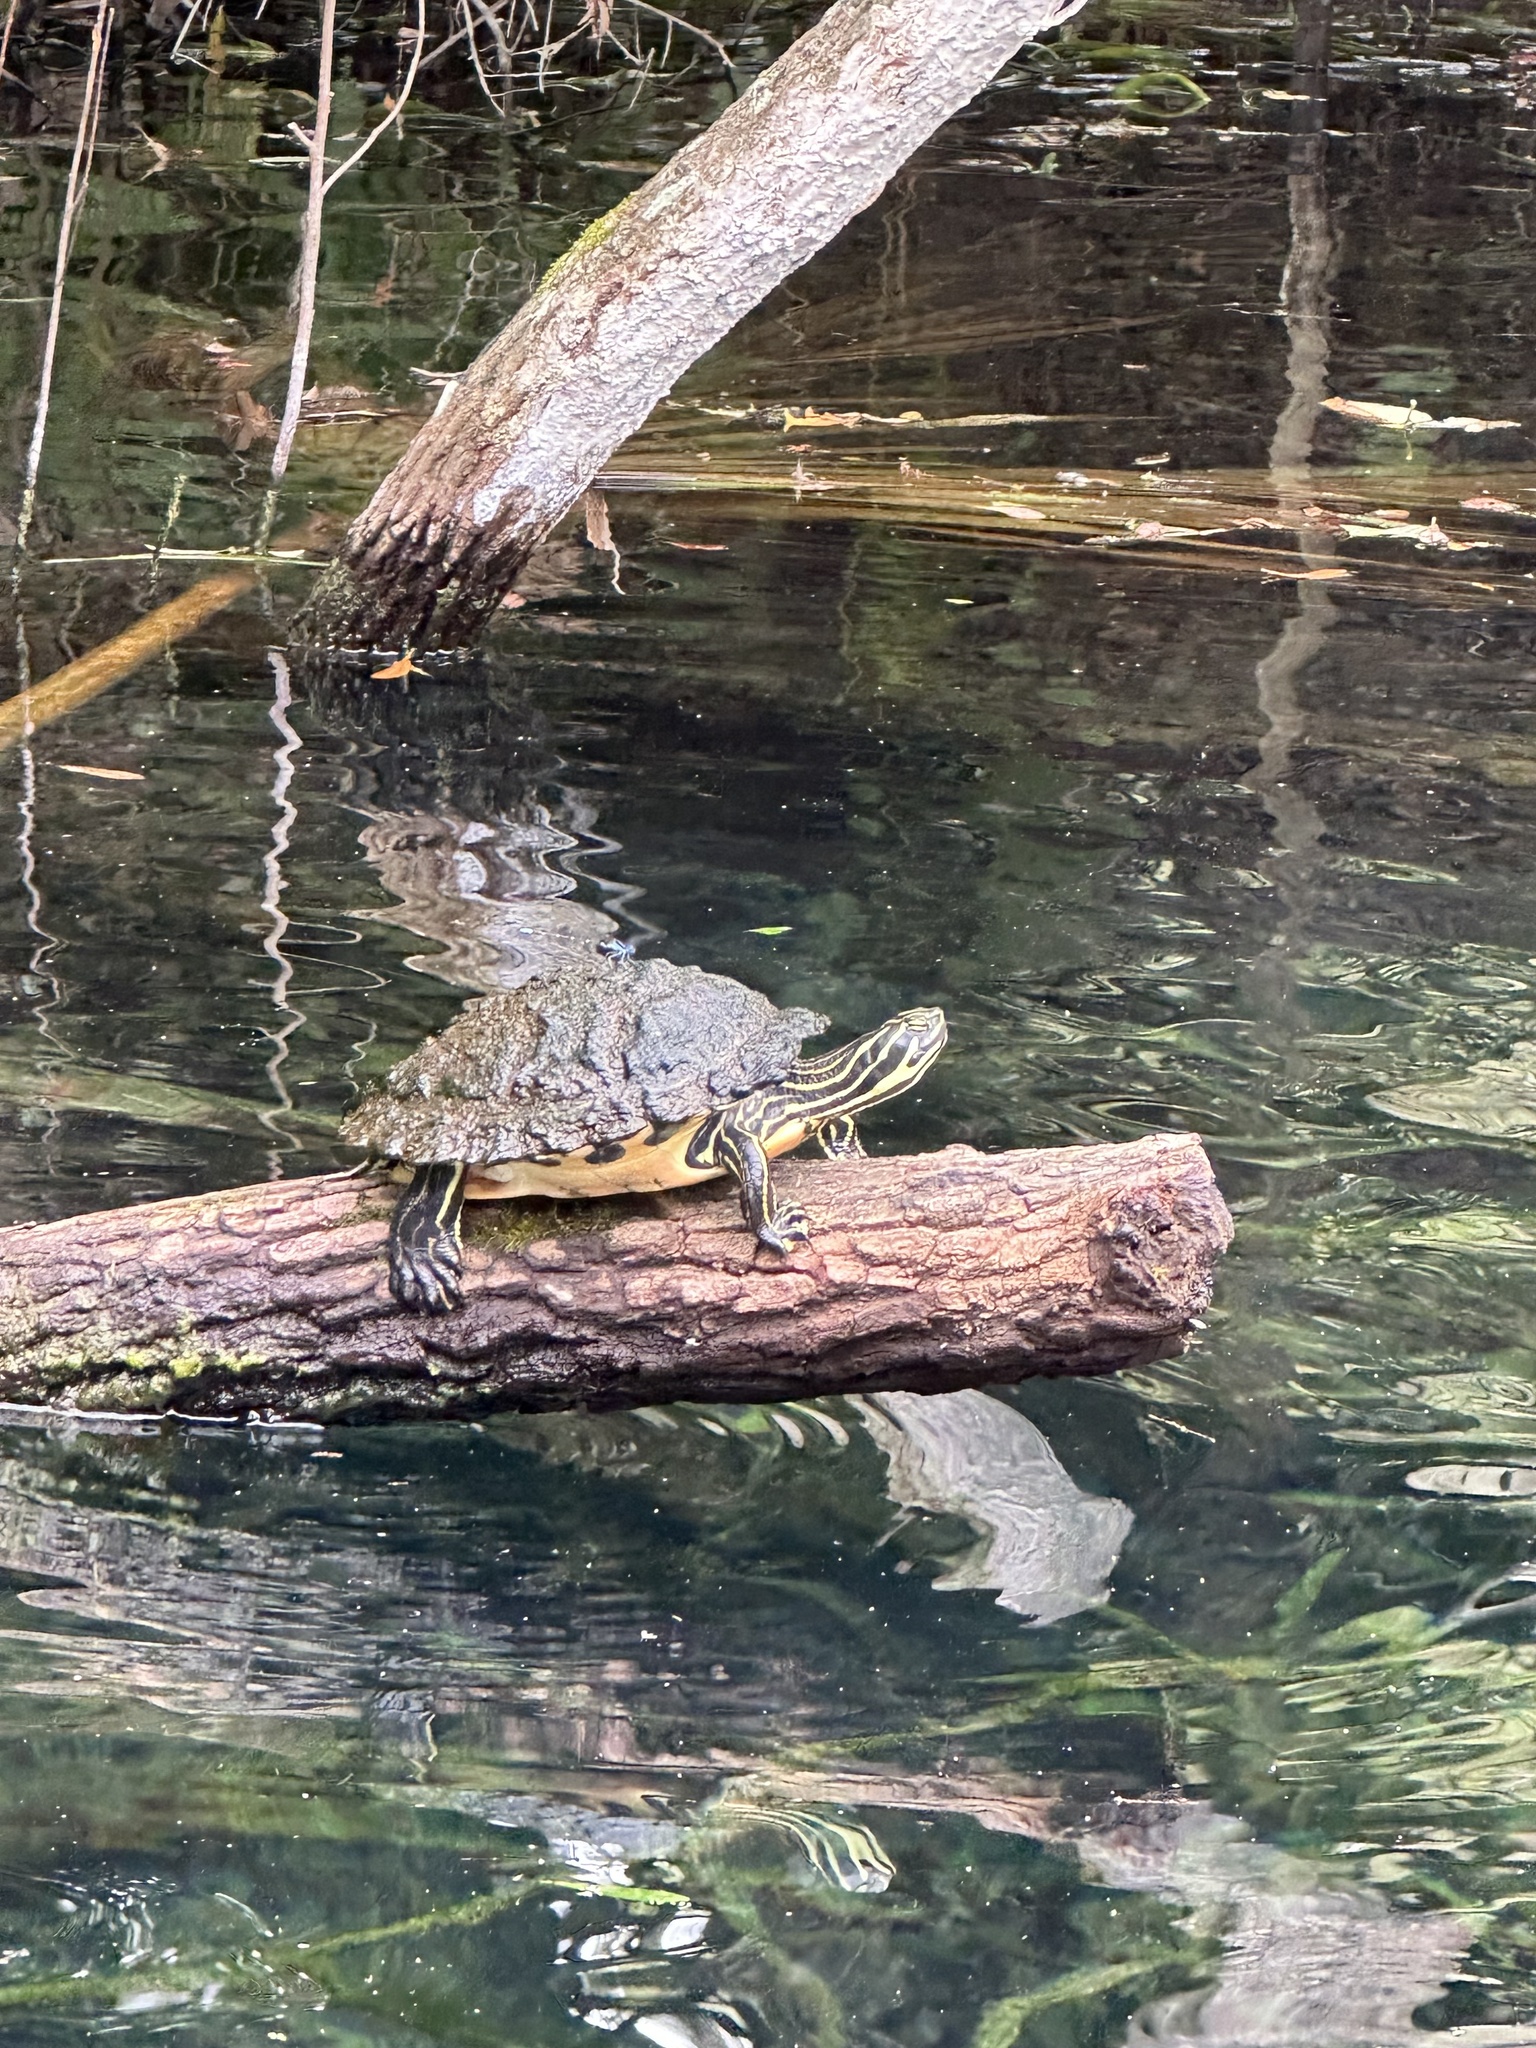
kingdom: Animalia
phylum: Chordata
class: Testudines
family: Emydidae
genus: Pseudemys
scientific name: Pseudemys peninsularis
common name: Peninsula cooter
